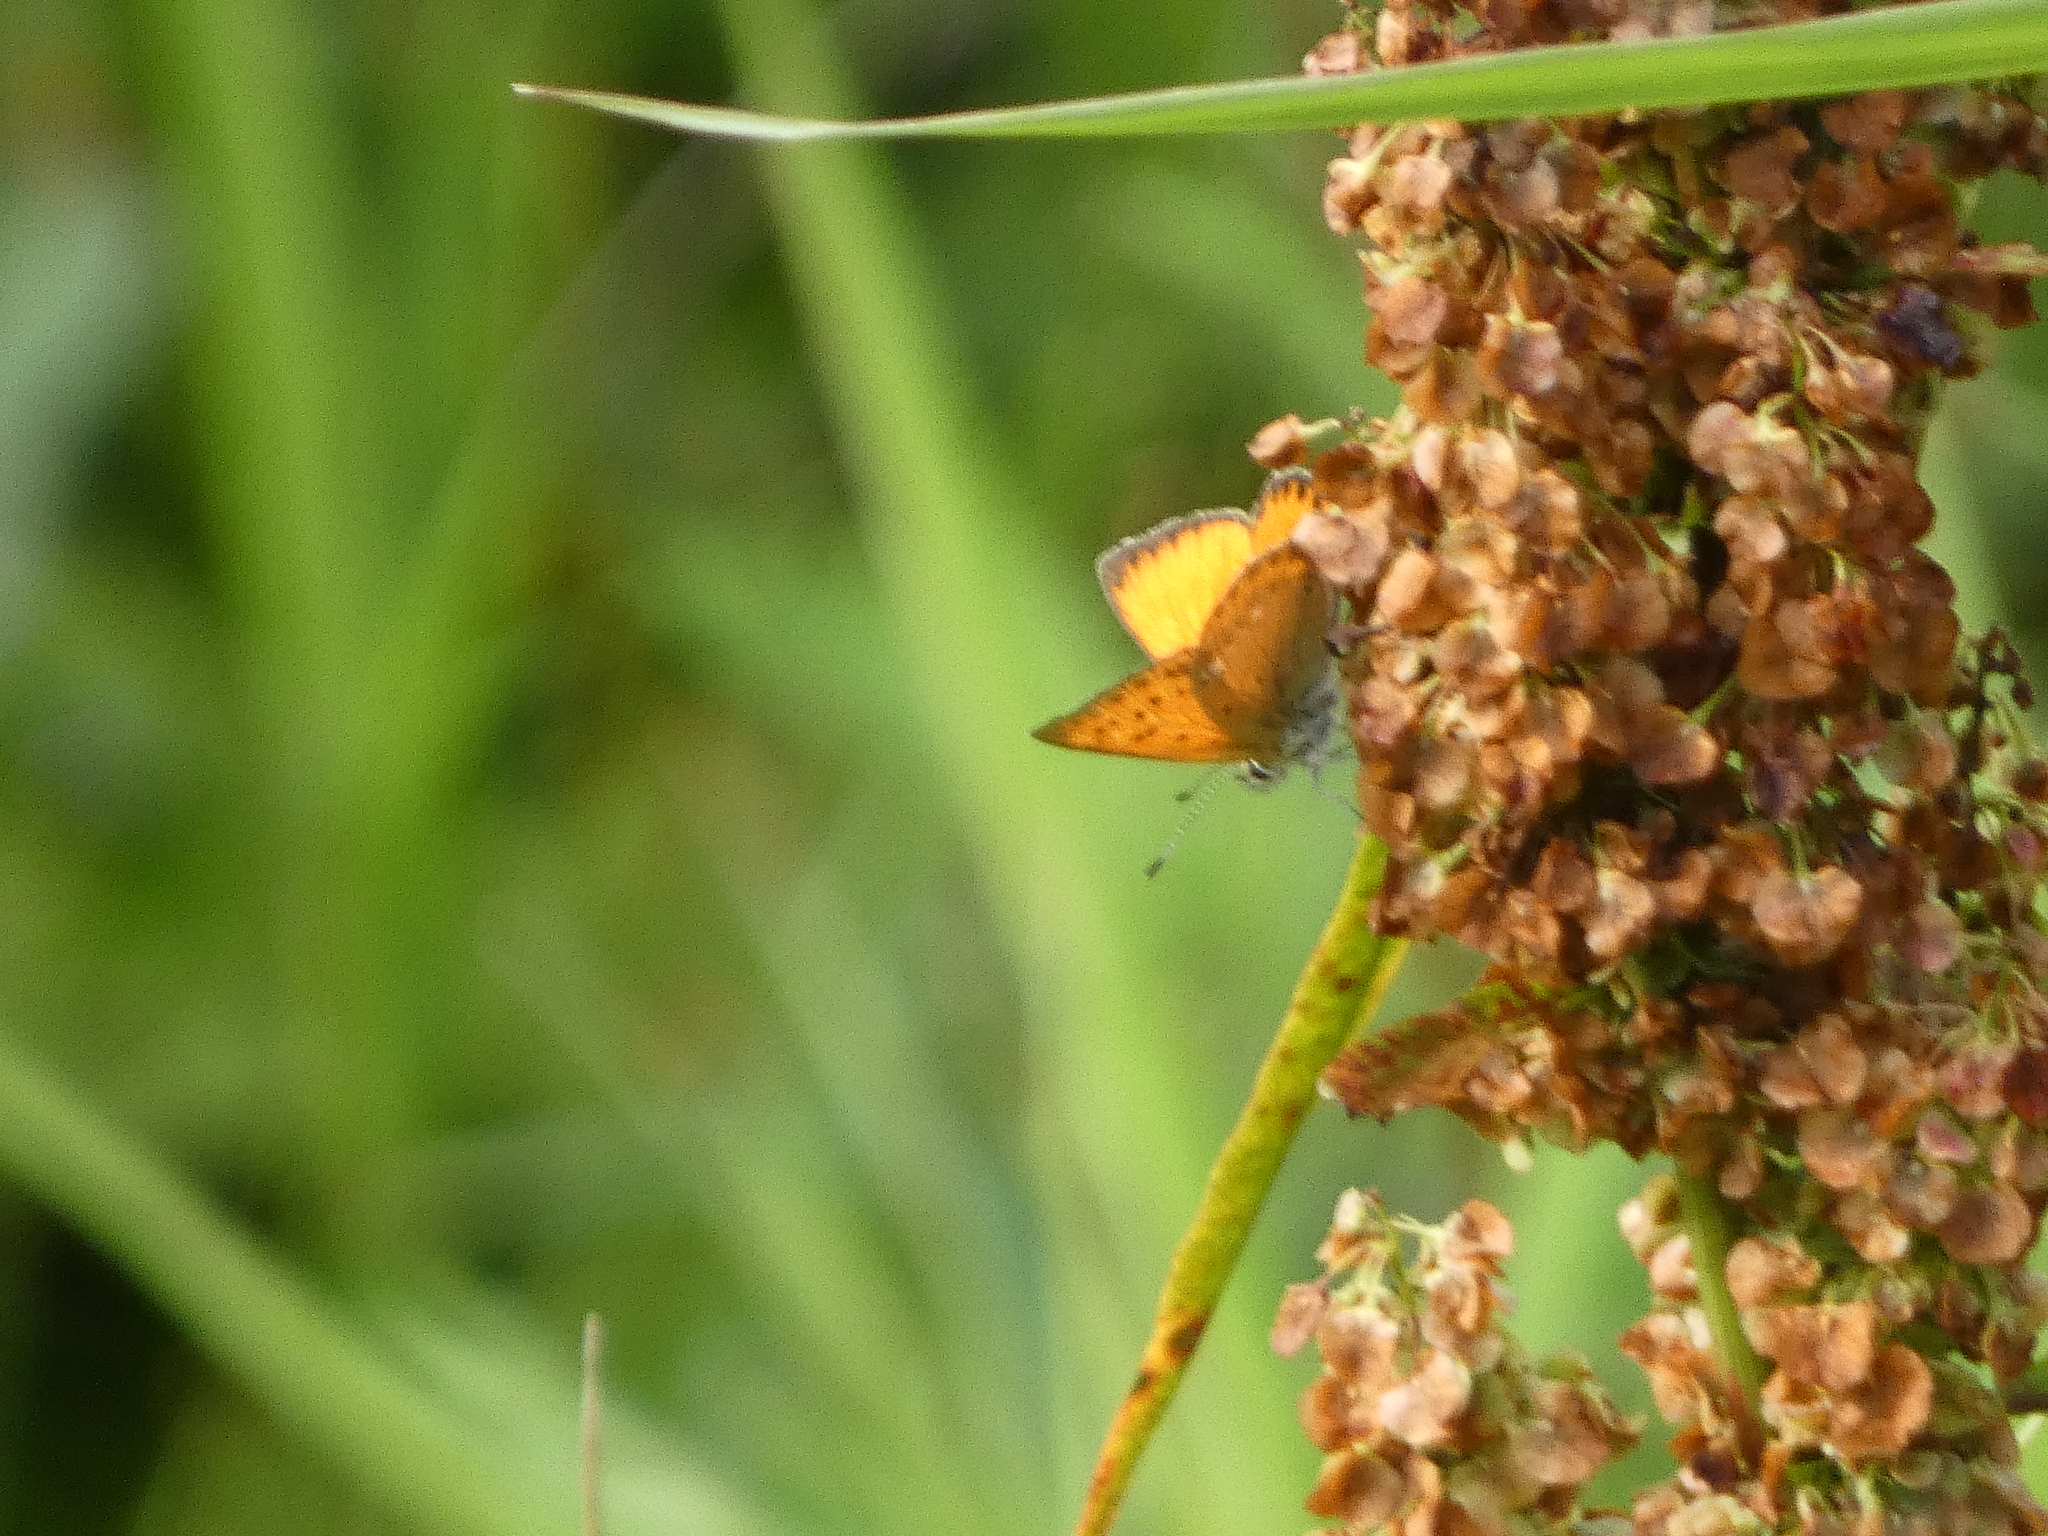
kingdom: Animalia
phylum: Arthropoda
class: Insecta
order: Lepidoptera
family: Lycaenidae
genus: Lycaena
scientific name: Lycaena virgaureae
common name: Scarce copper
